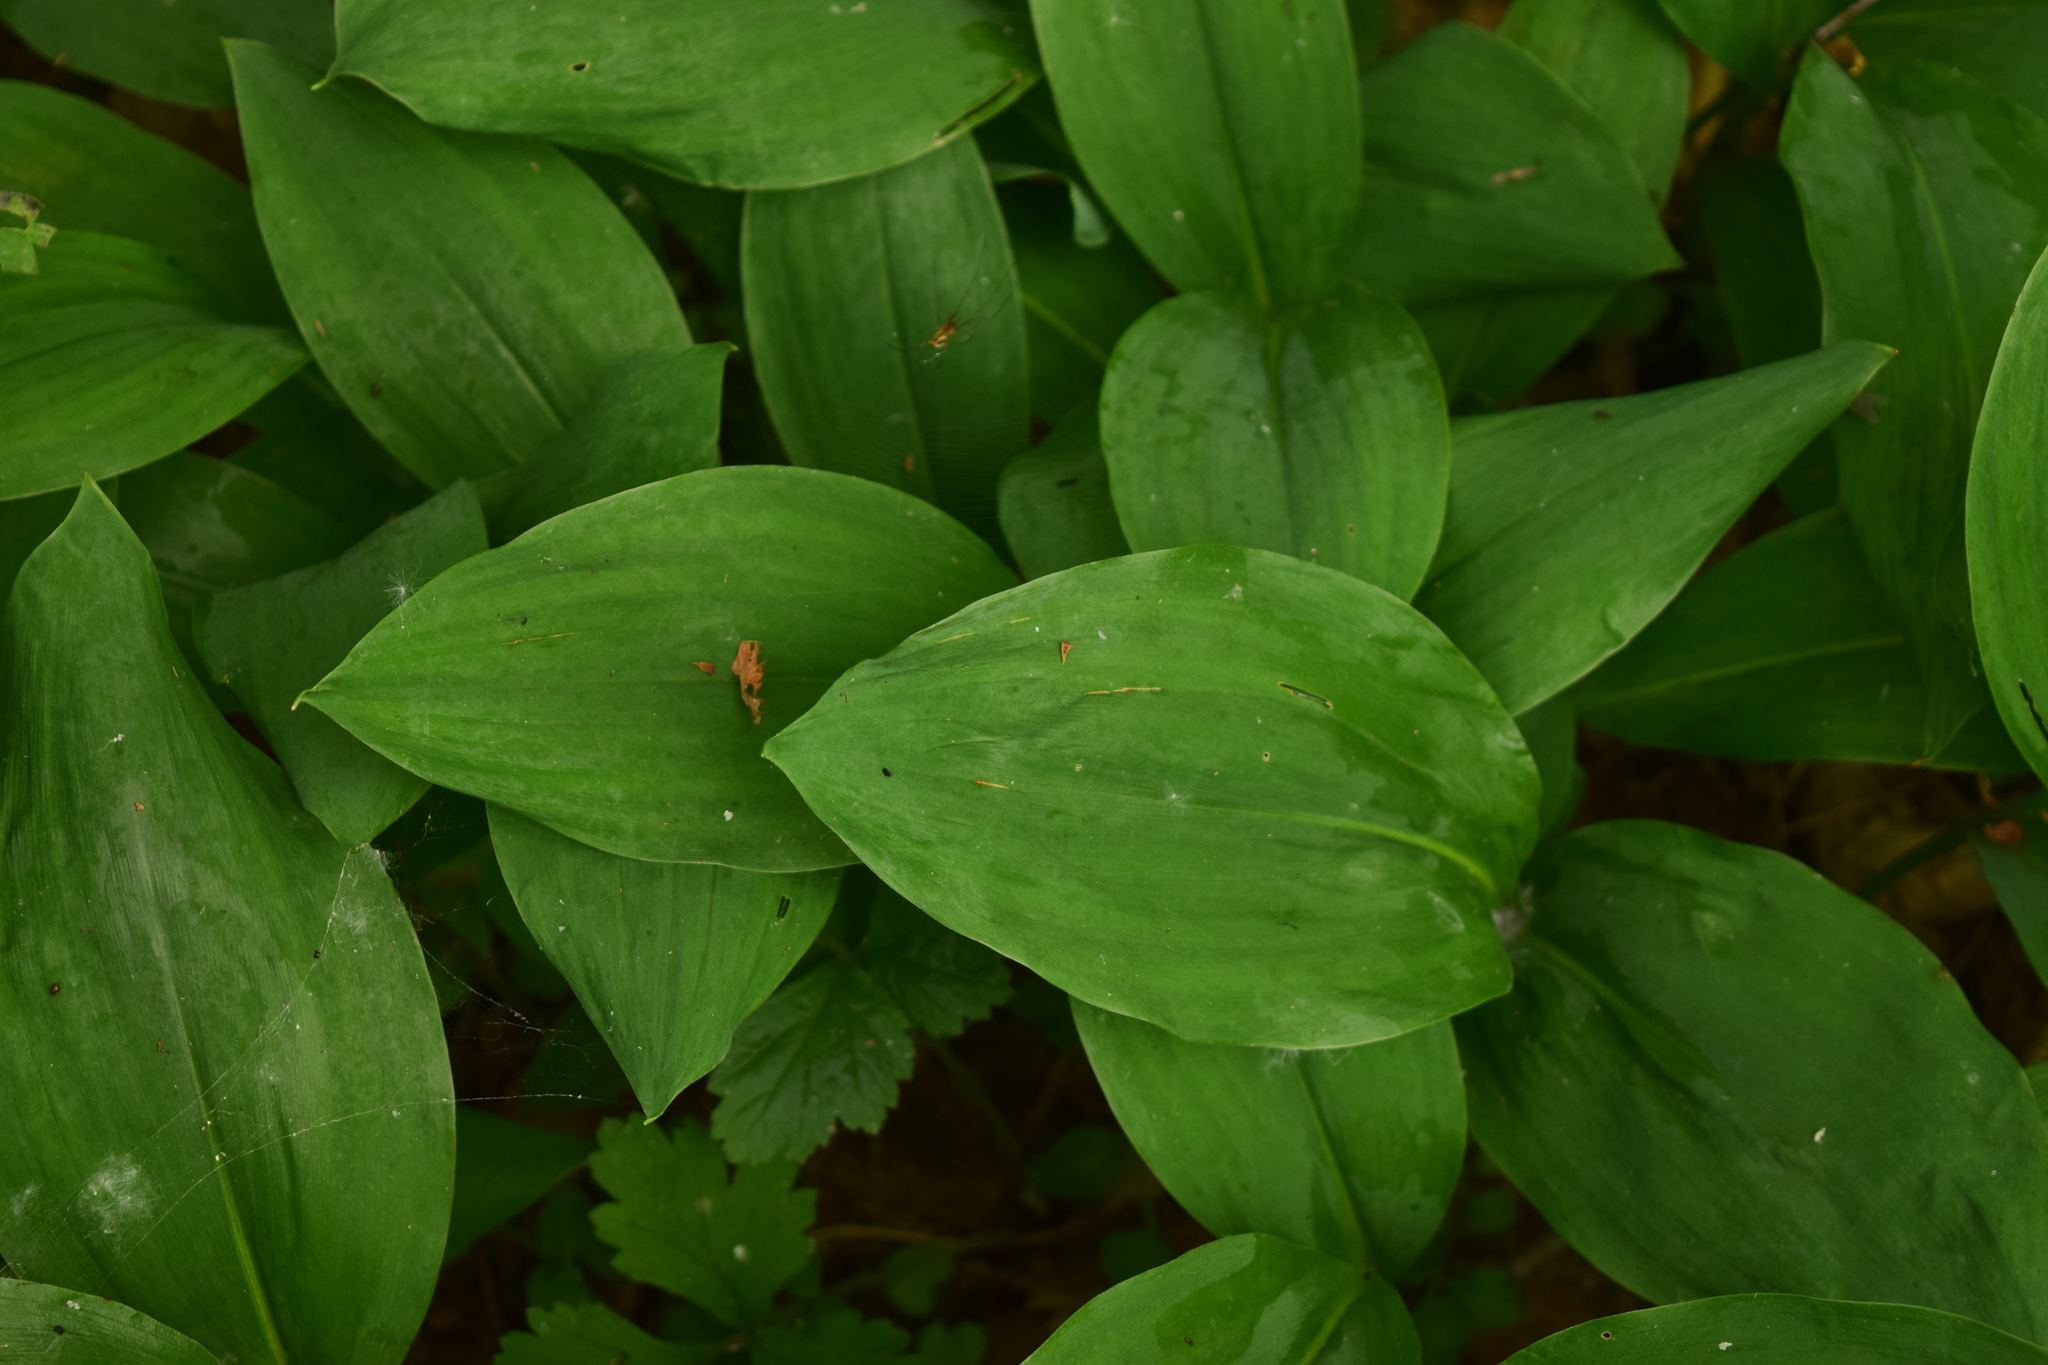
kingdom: Plantae
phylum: Tracheophyta
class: Liliopsida
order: Asparagales
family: Asparagaceae
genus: Convallaria
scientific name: Convallaria majalis
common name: Lily-of-the-valley
